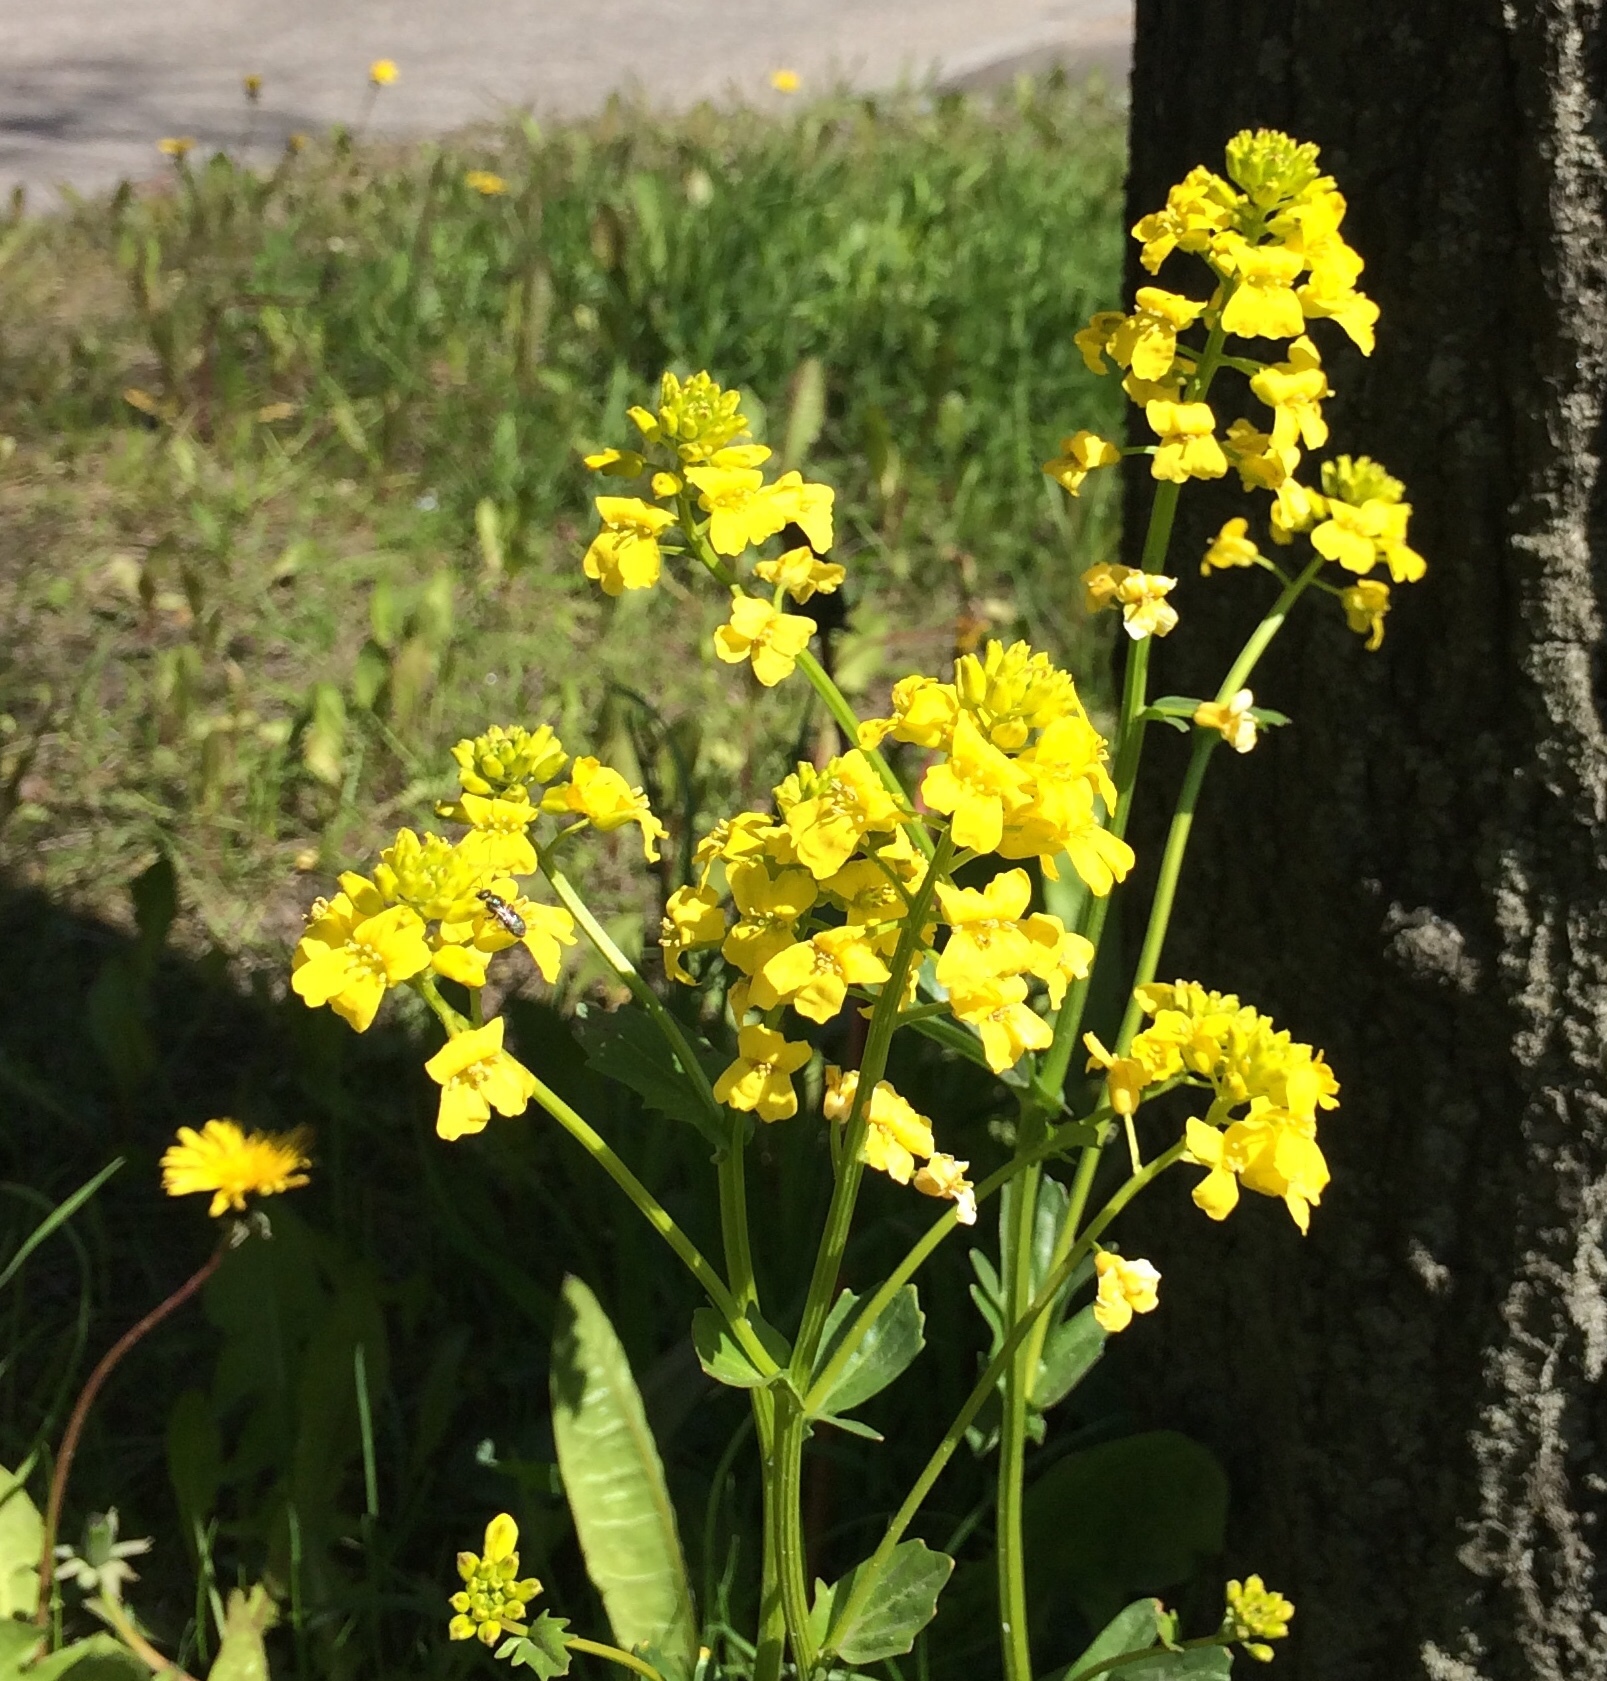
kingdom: Plantae
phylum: Tracheophyta
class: Magnoliopsida
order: Brassicales
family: Brassicaceae
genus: Barbarea
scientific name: Barbarea vulgaris
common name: Cressy-greens
